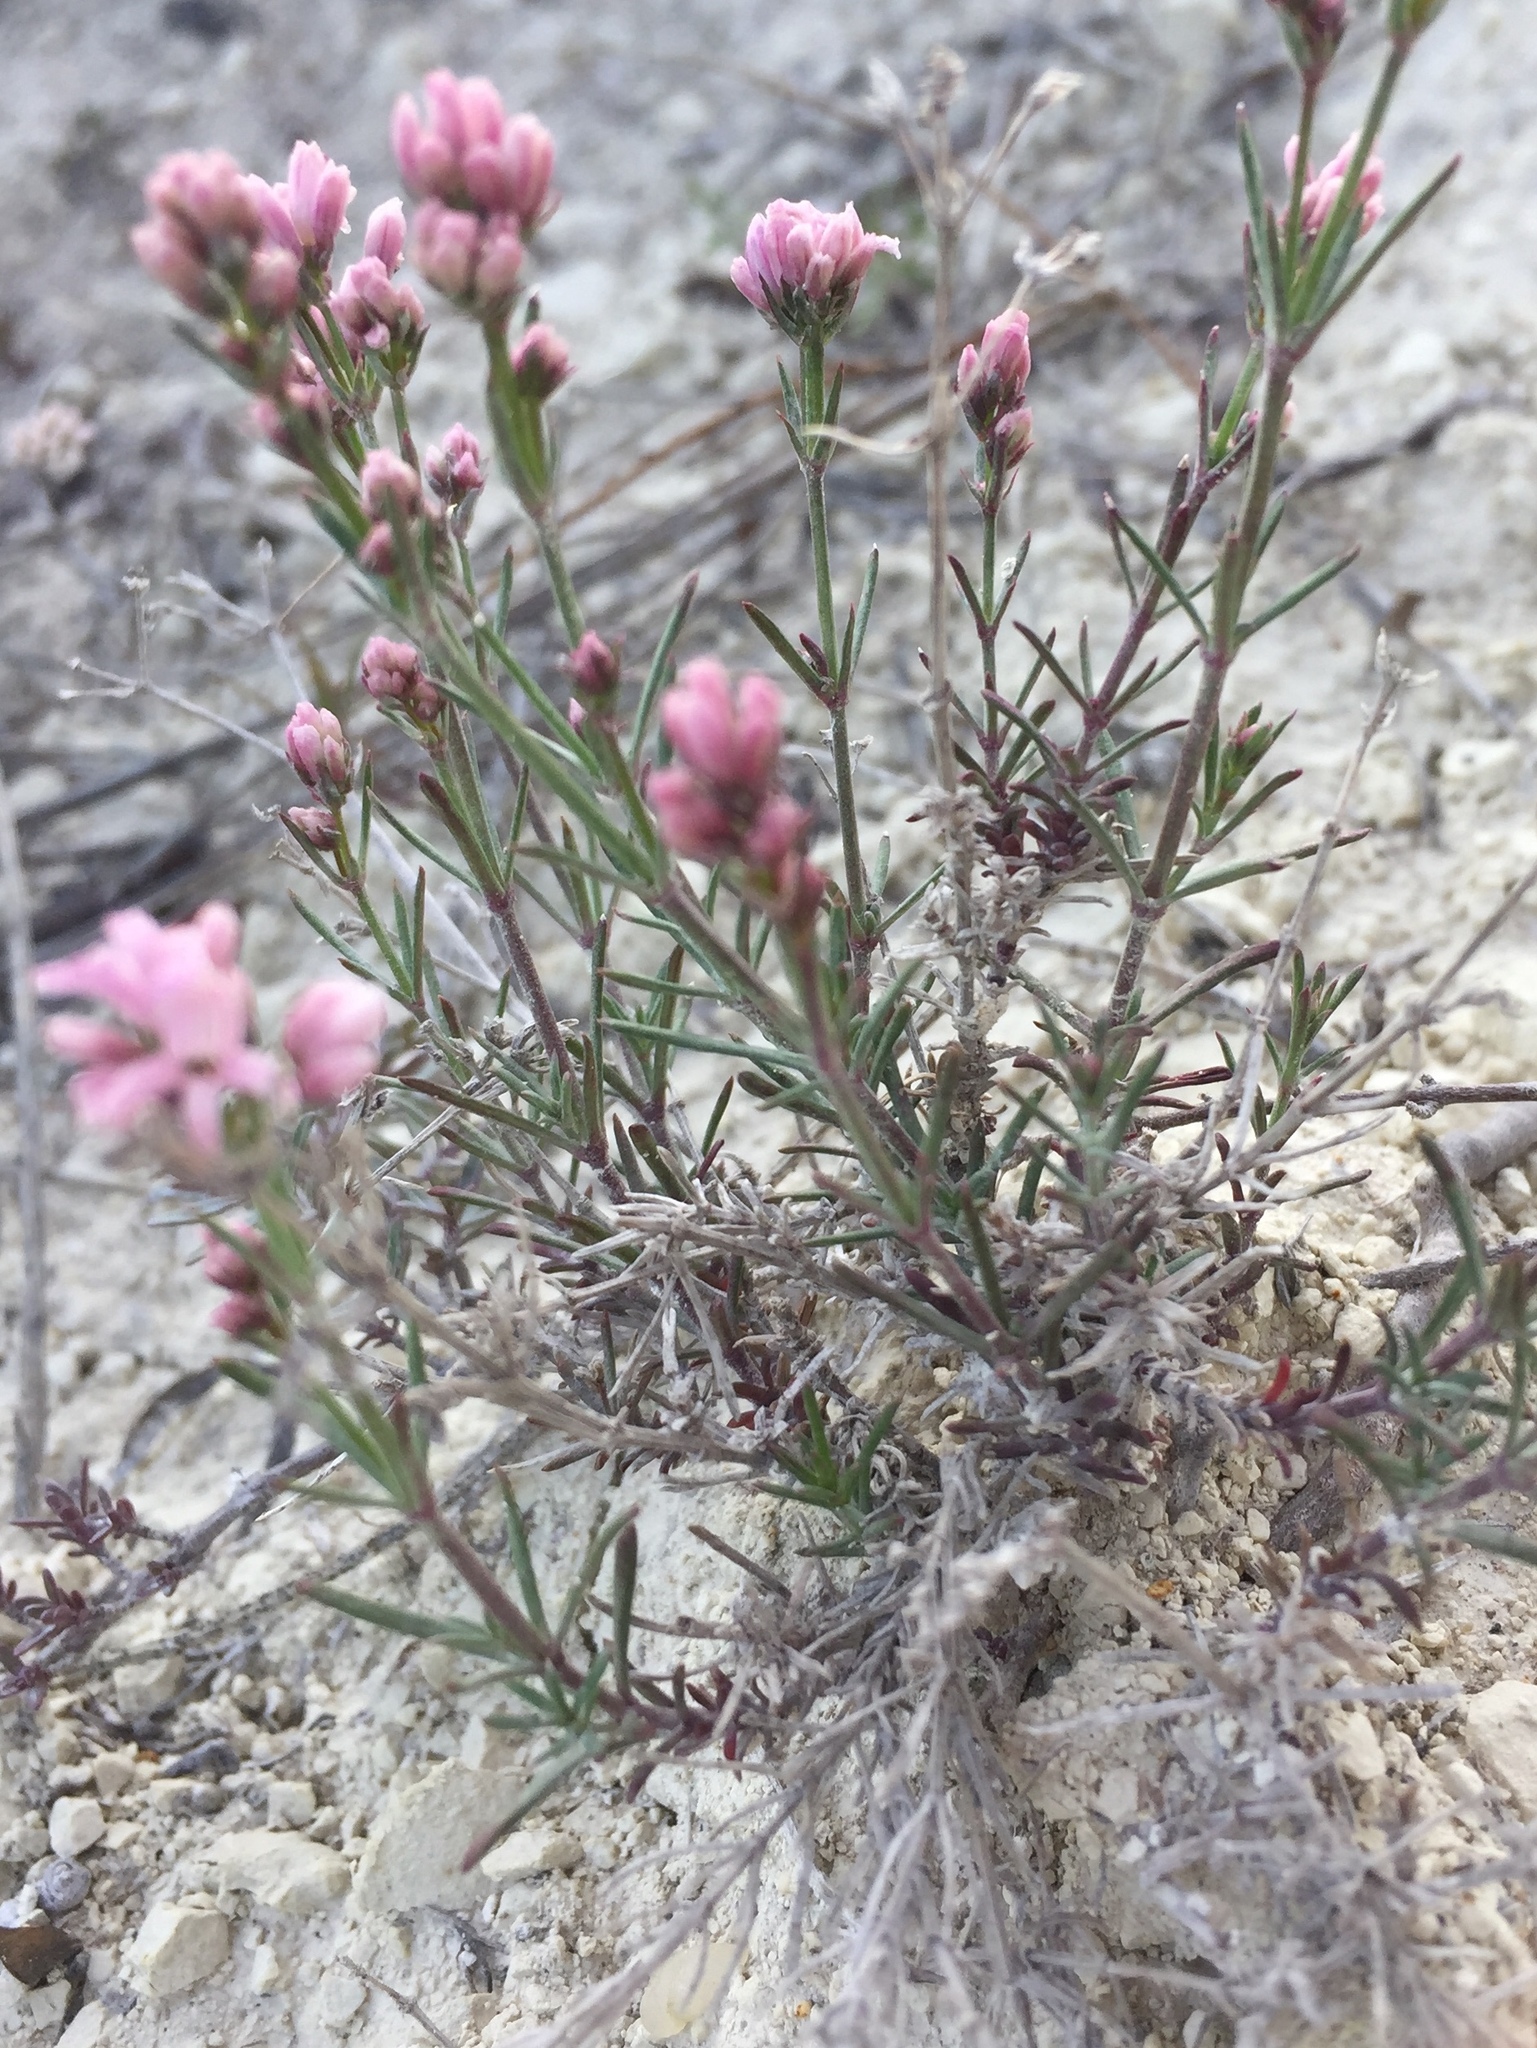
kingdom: Plantae
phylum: Tracheophyta
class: Magnoliopsida
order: Gentianales
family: Rubiaceae
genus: Cynanchica
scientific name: Cynanchica tephrocarpa
